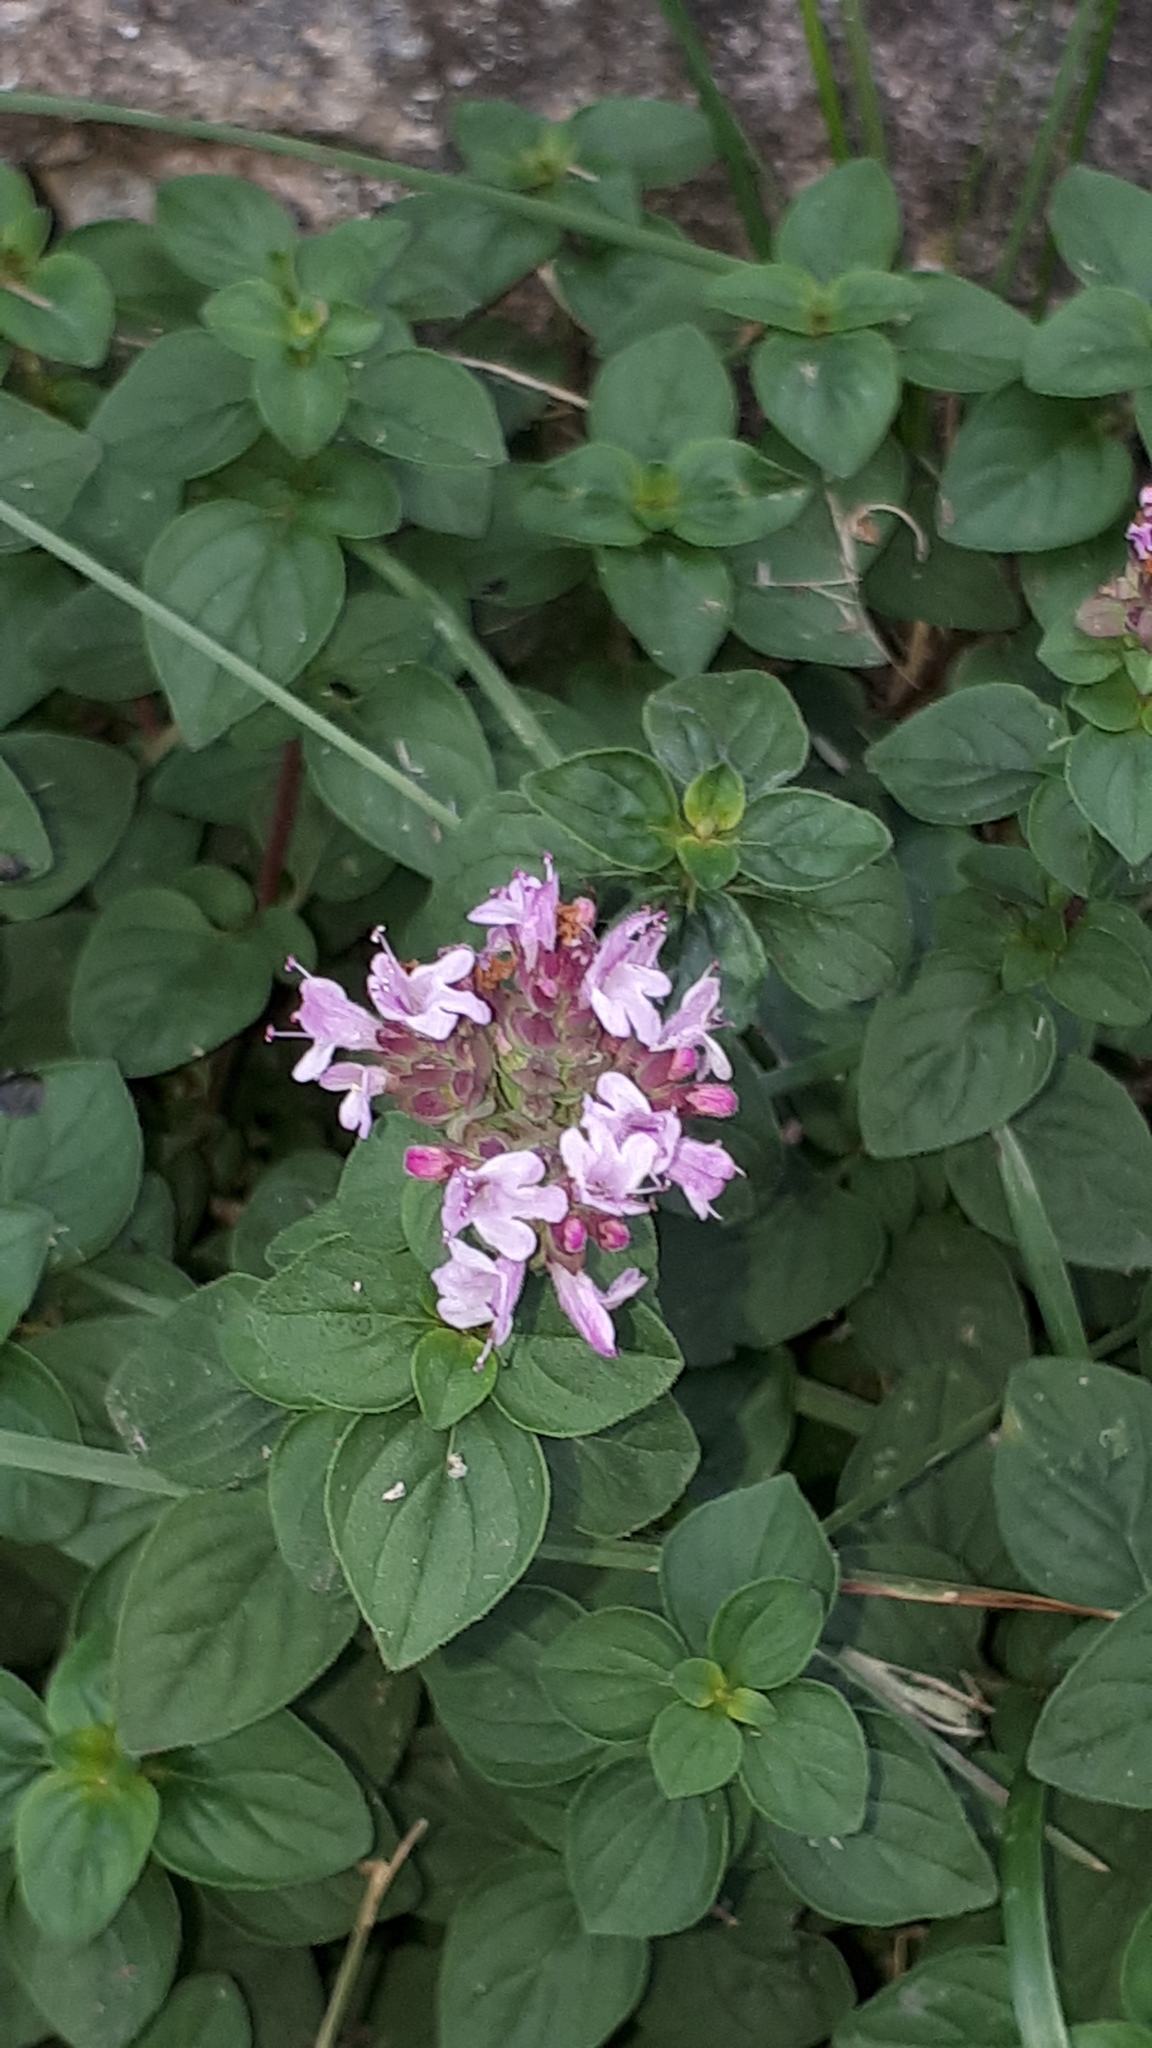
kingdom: Plantae
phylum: Tracheophyta
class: Magnoliopsida
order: Lamiales
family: Lamiaceae
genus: Origanum
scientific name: Origanum vulgare
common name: Wild marjoram
